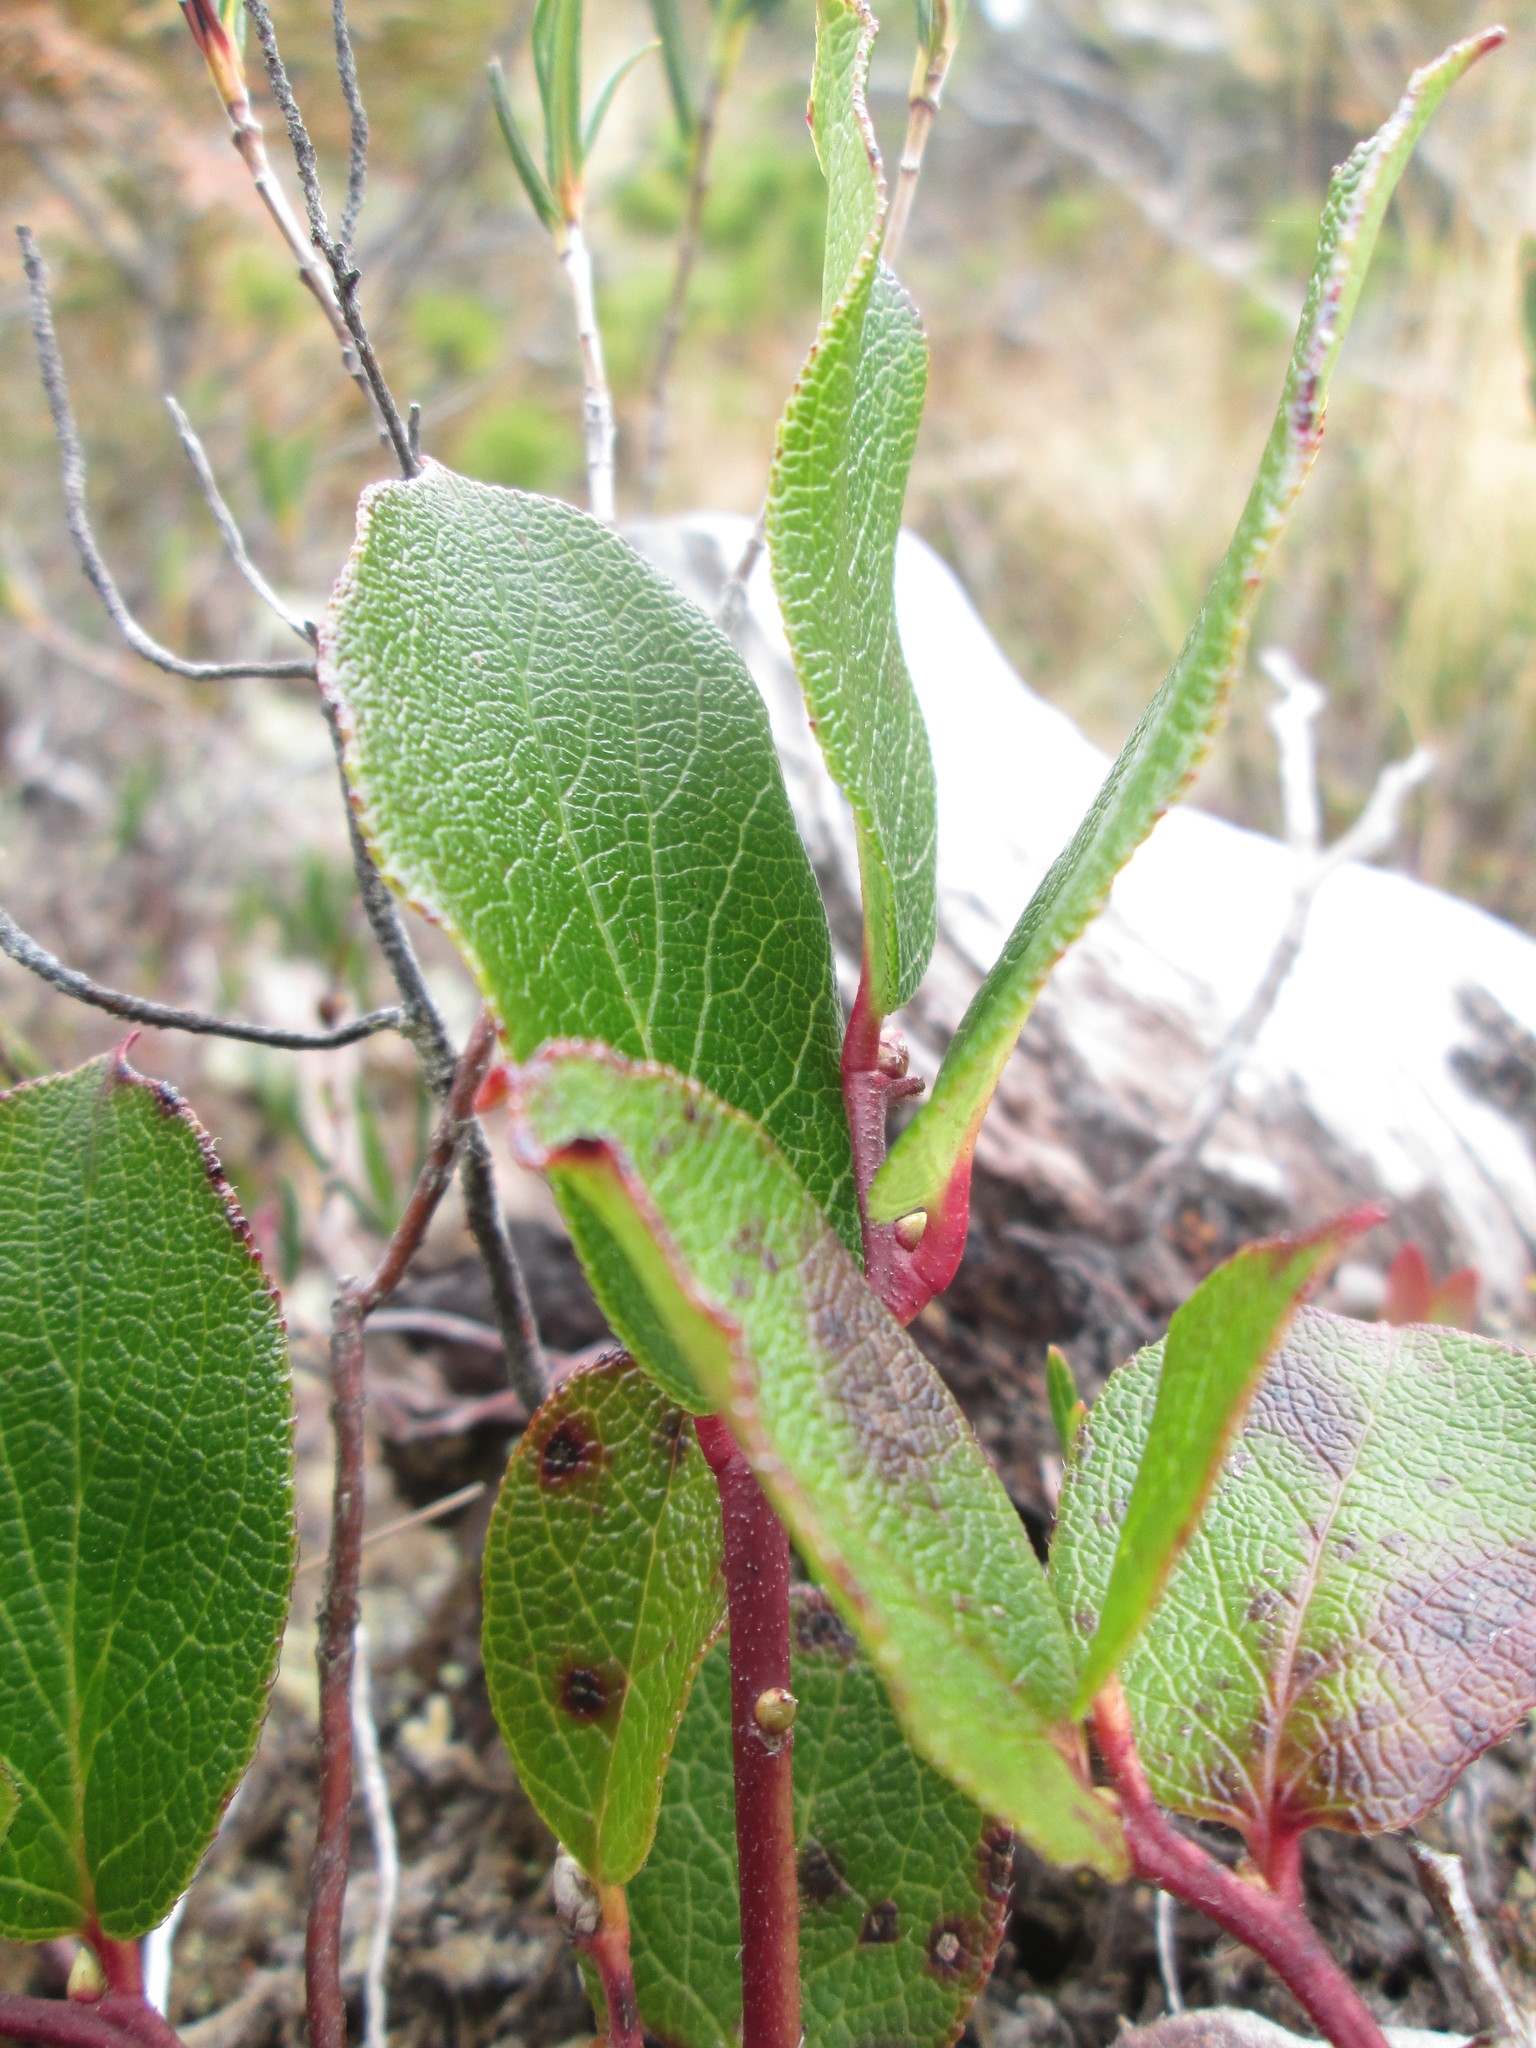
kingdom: Plantae
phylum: Tracheophyta
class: Magnoliopsida
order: Ericales
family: Ericaceae
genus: Gaultheria
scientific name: Gaultheria shallon
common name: Shallon
